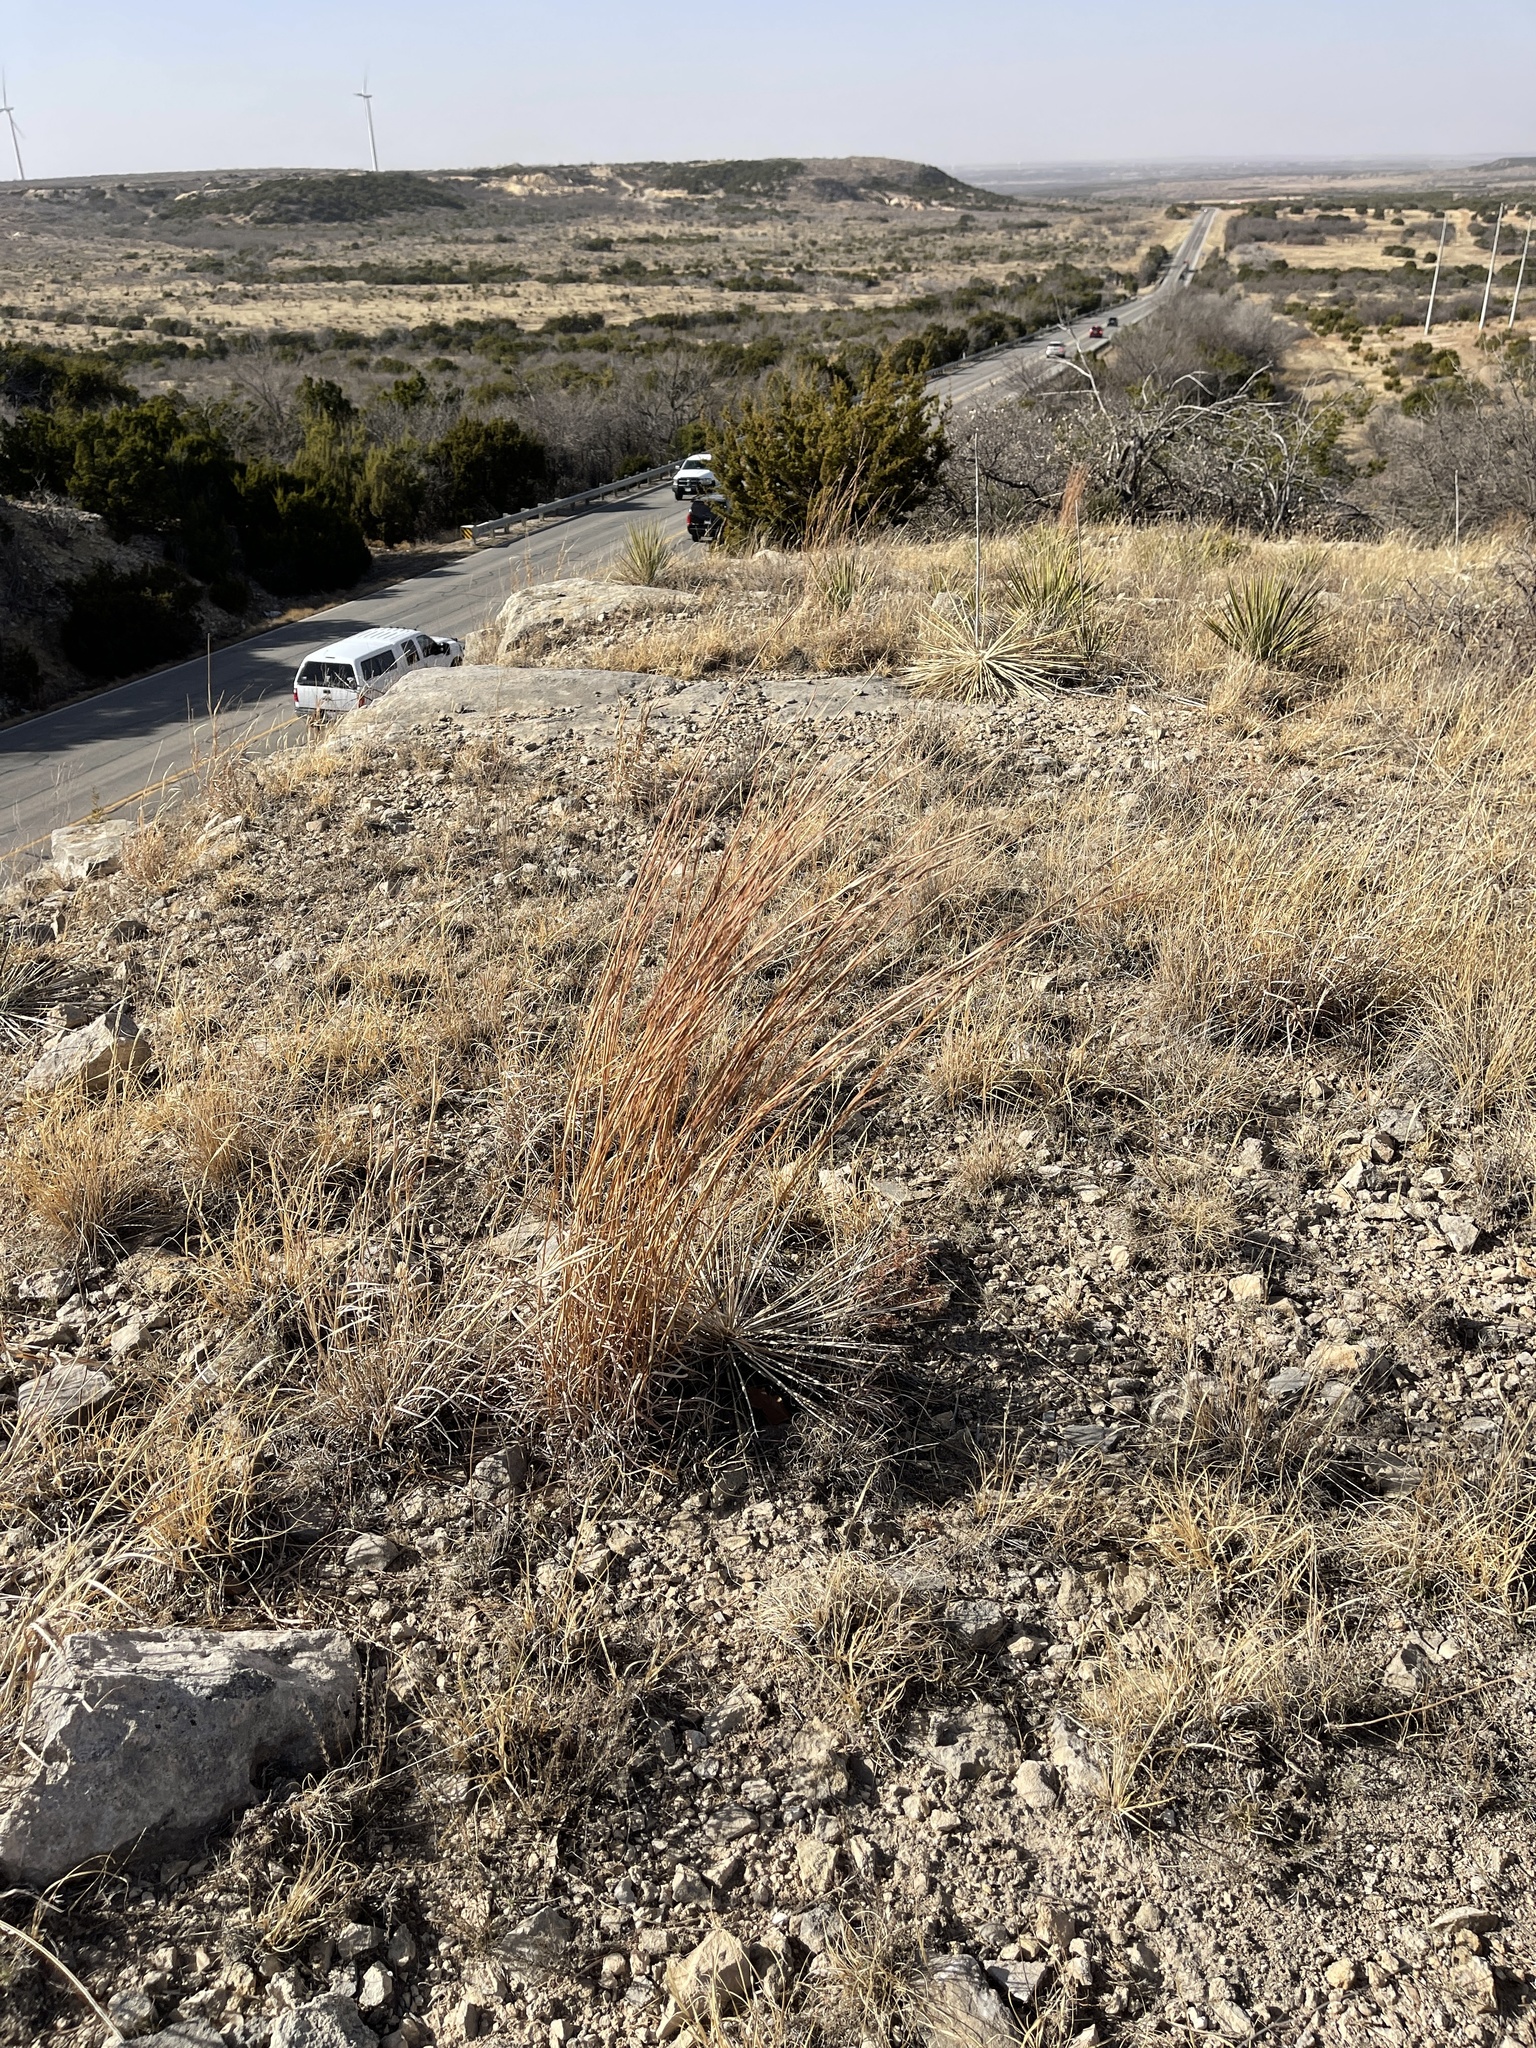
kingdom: Plantae
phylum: Tracheophyta
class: Liliopsida
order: Poales
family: Poaceae
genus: Schizachyrium
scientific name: Schizachyrium scoparium
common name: Little bluestem
